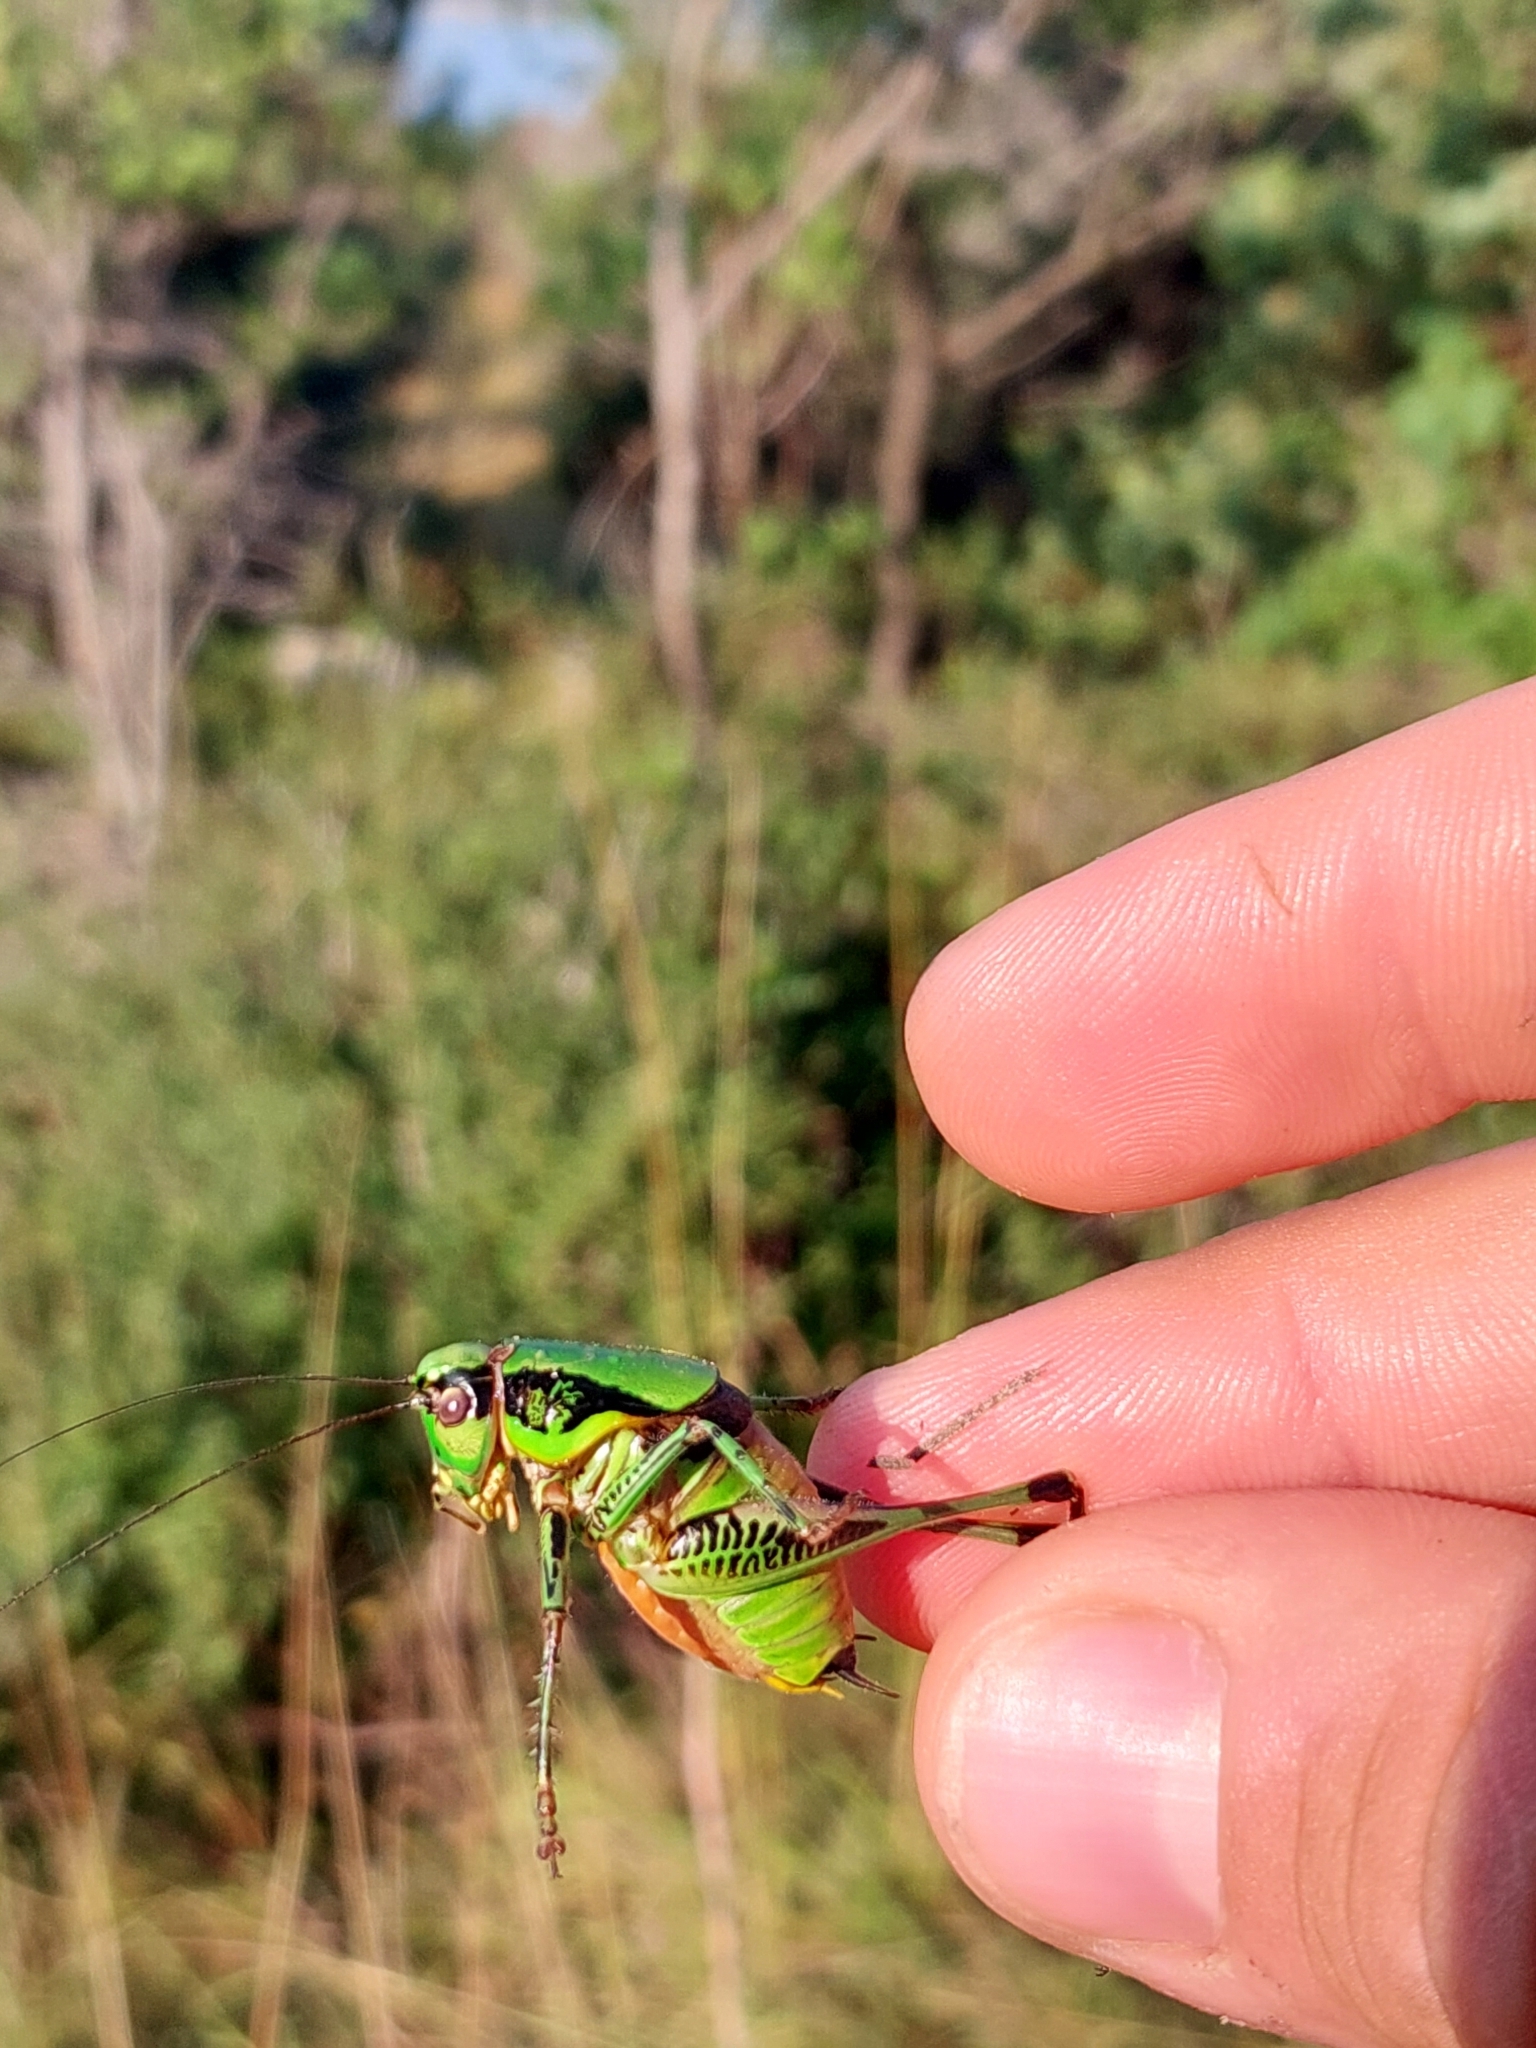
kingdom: Animalia
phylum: Arthropoda
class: Insecta
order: Orthoptera
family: Tettigoniidae
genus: Eupholidoptera
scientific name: Eupholidoptera schmidti
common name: Schmidt's marbled bush-cricket
